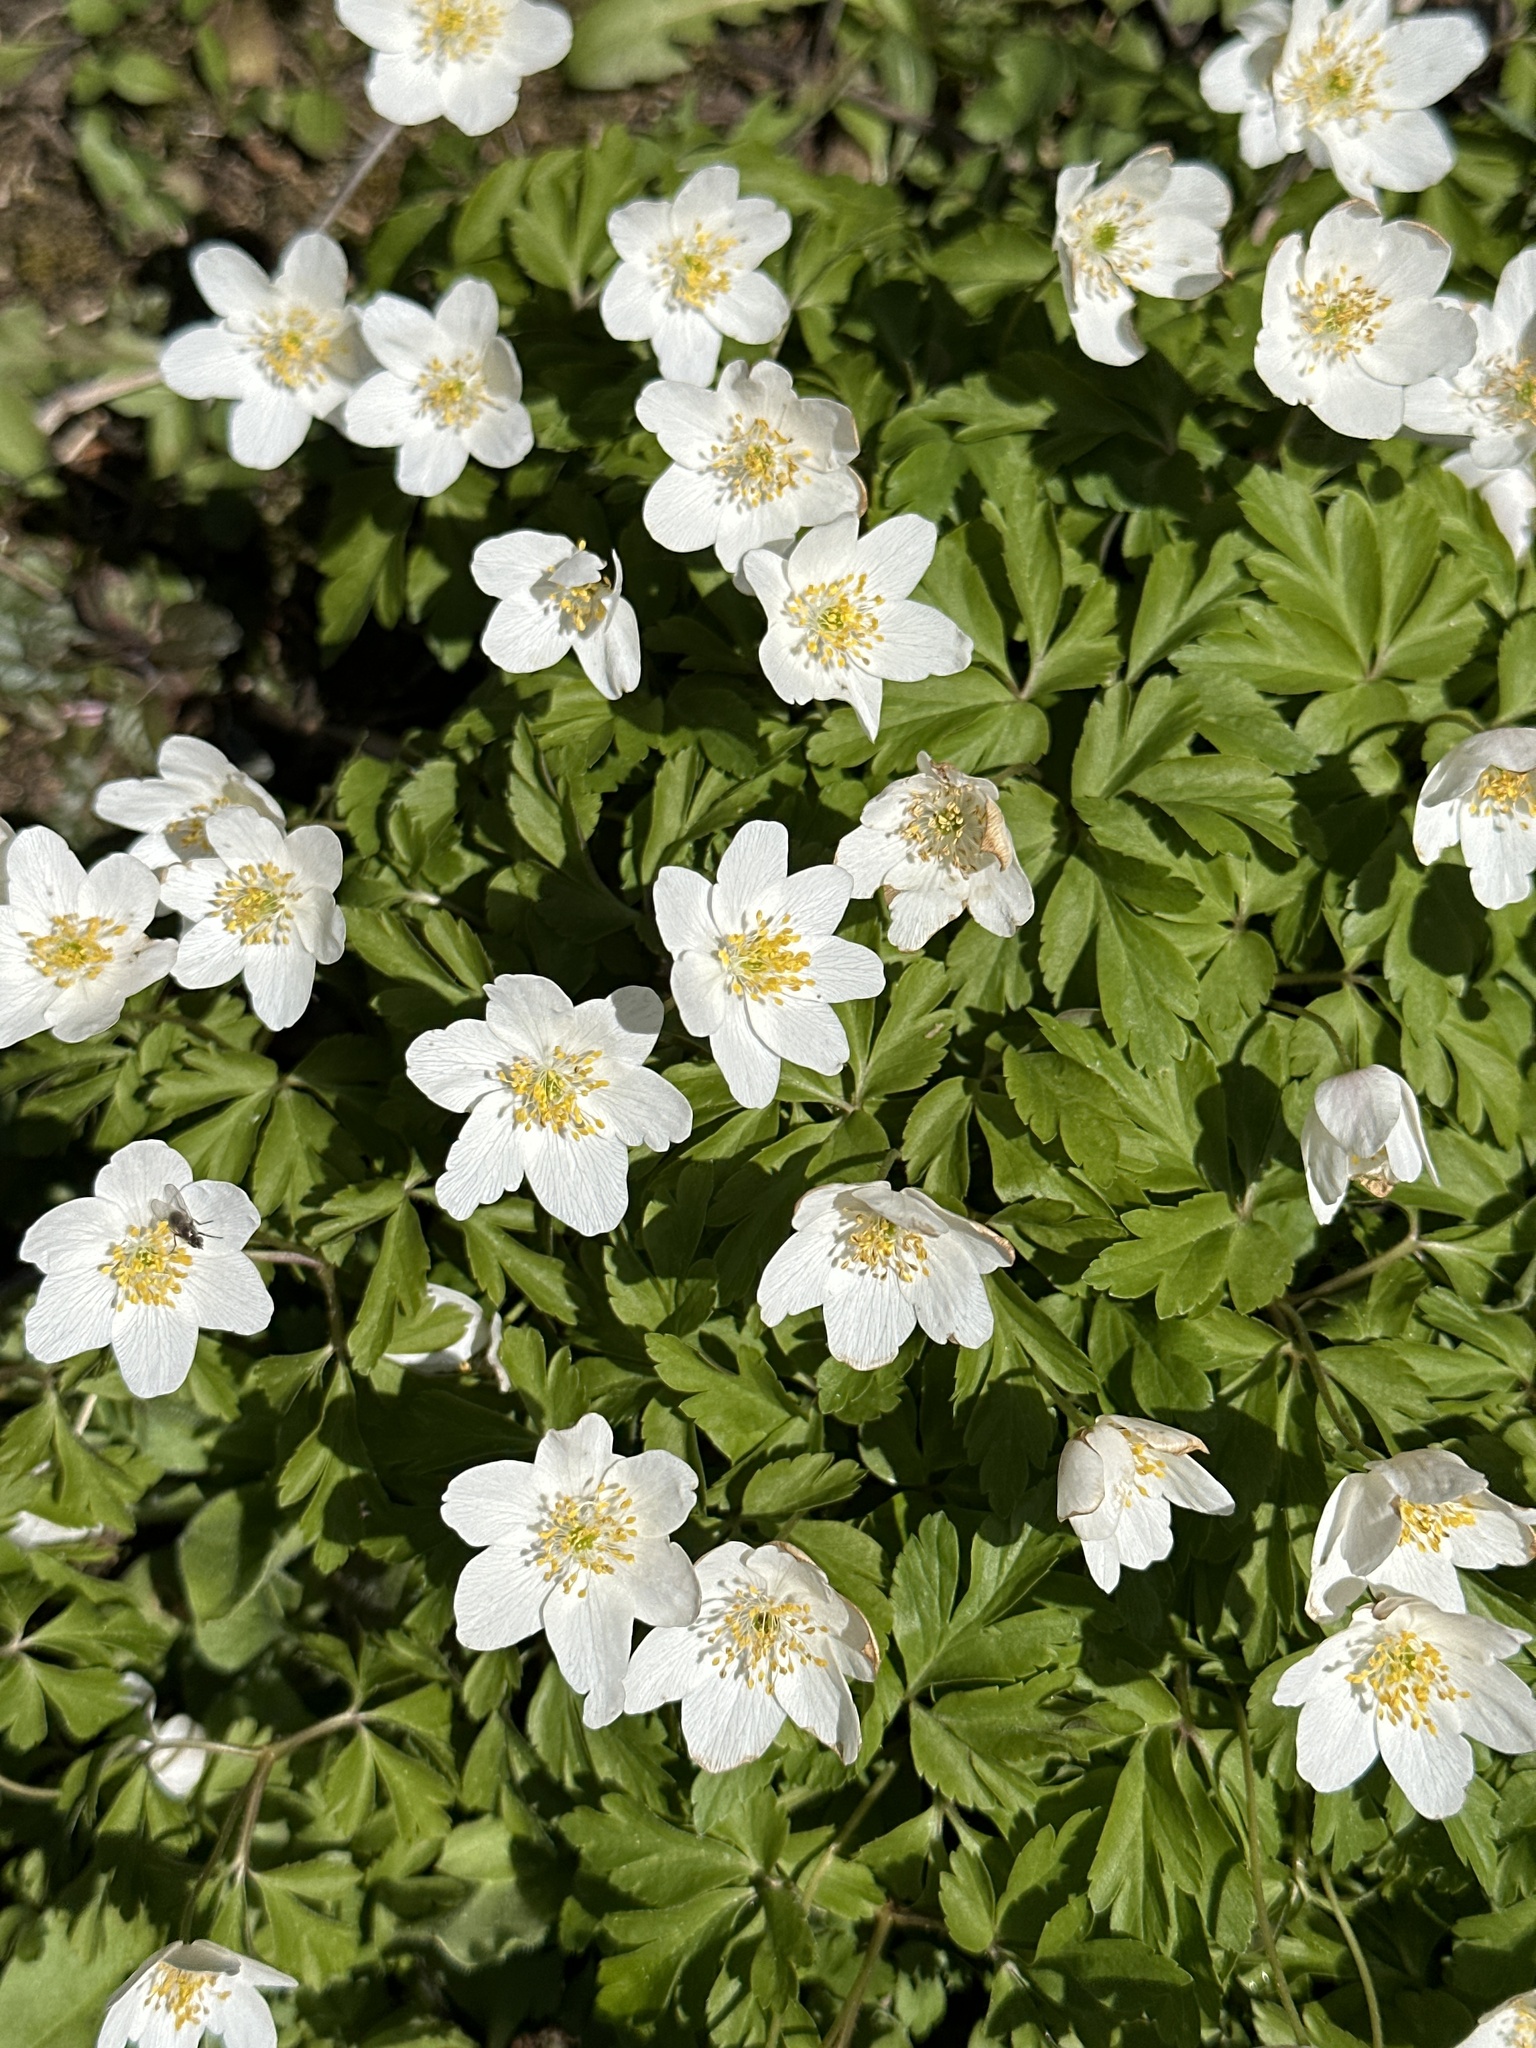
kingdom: Plantae
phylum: Tracheophyta
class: Magnoliopsida
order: Ranunculales
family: Ranunculaceae
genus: Anemone
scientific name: Anemone nemorosa
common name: Wood anemone
